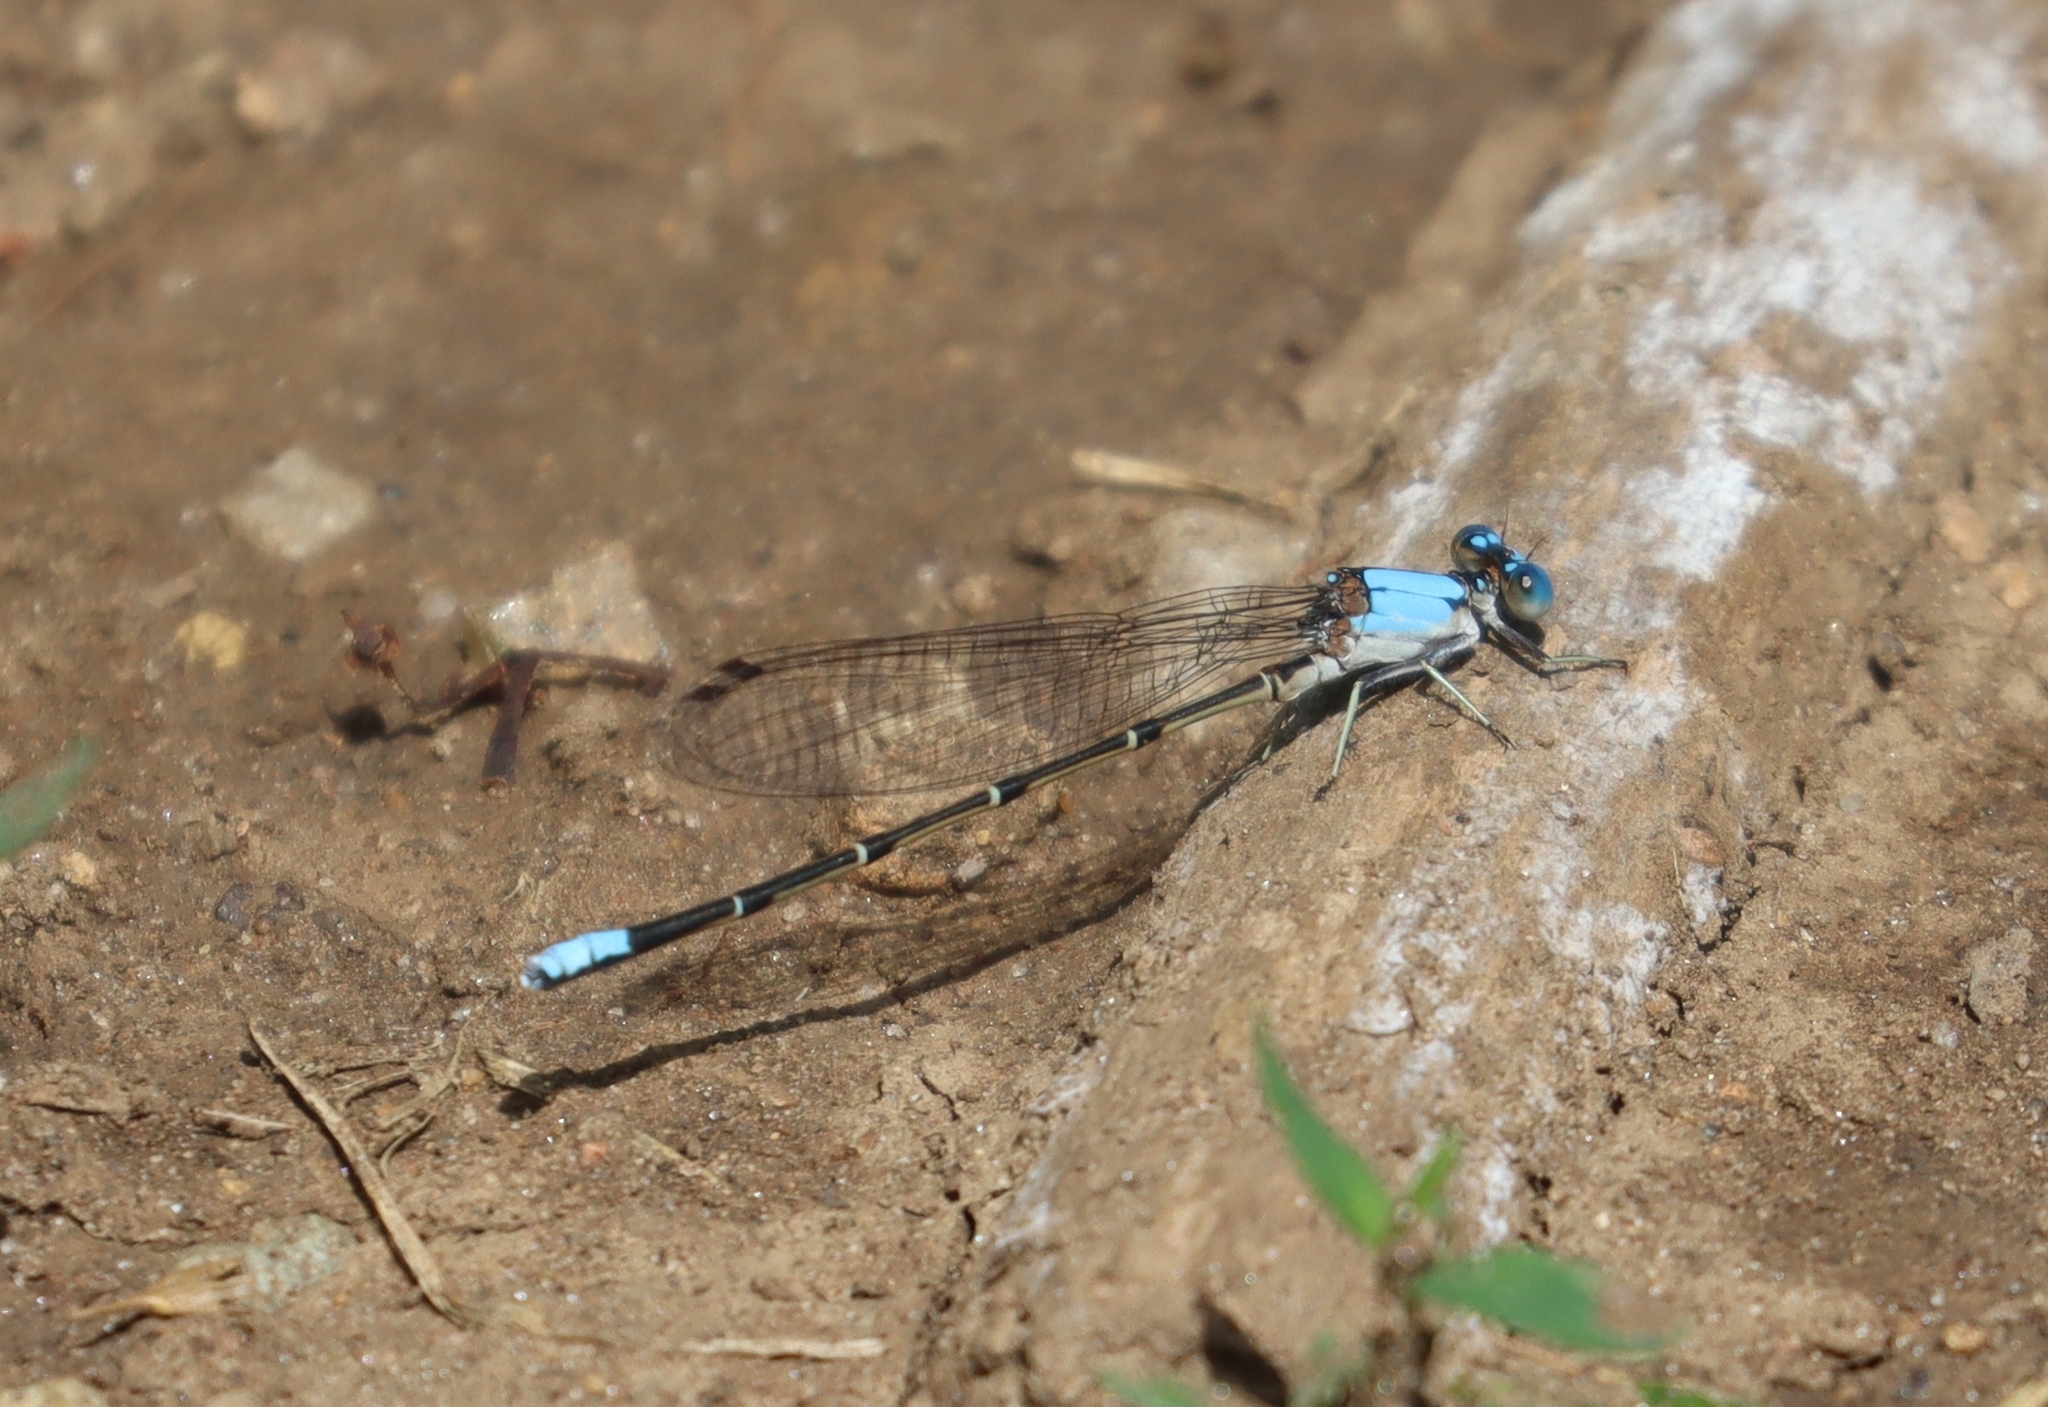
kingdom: Animalia
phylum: Arthropoda
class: Insecta
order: Odonata
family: Coenagrionidae
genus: Argia
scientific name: Argia apicalis
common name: Blue-fronted dancer
